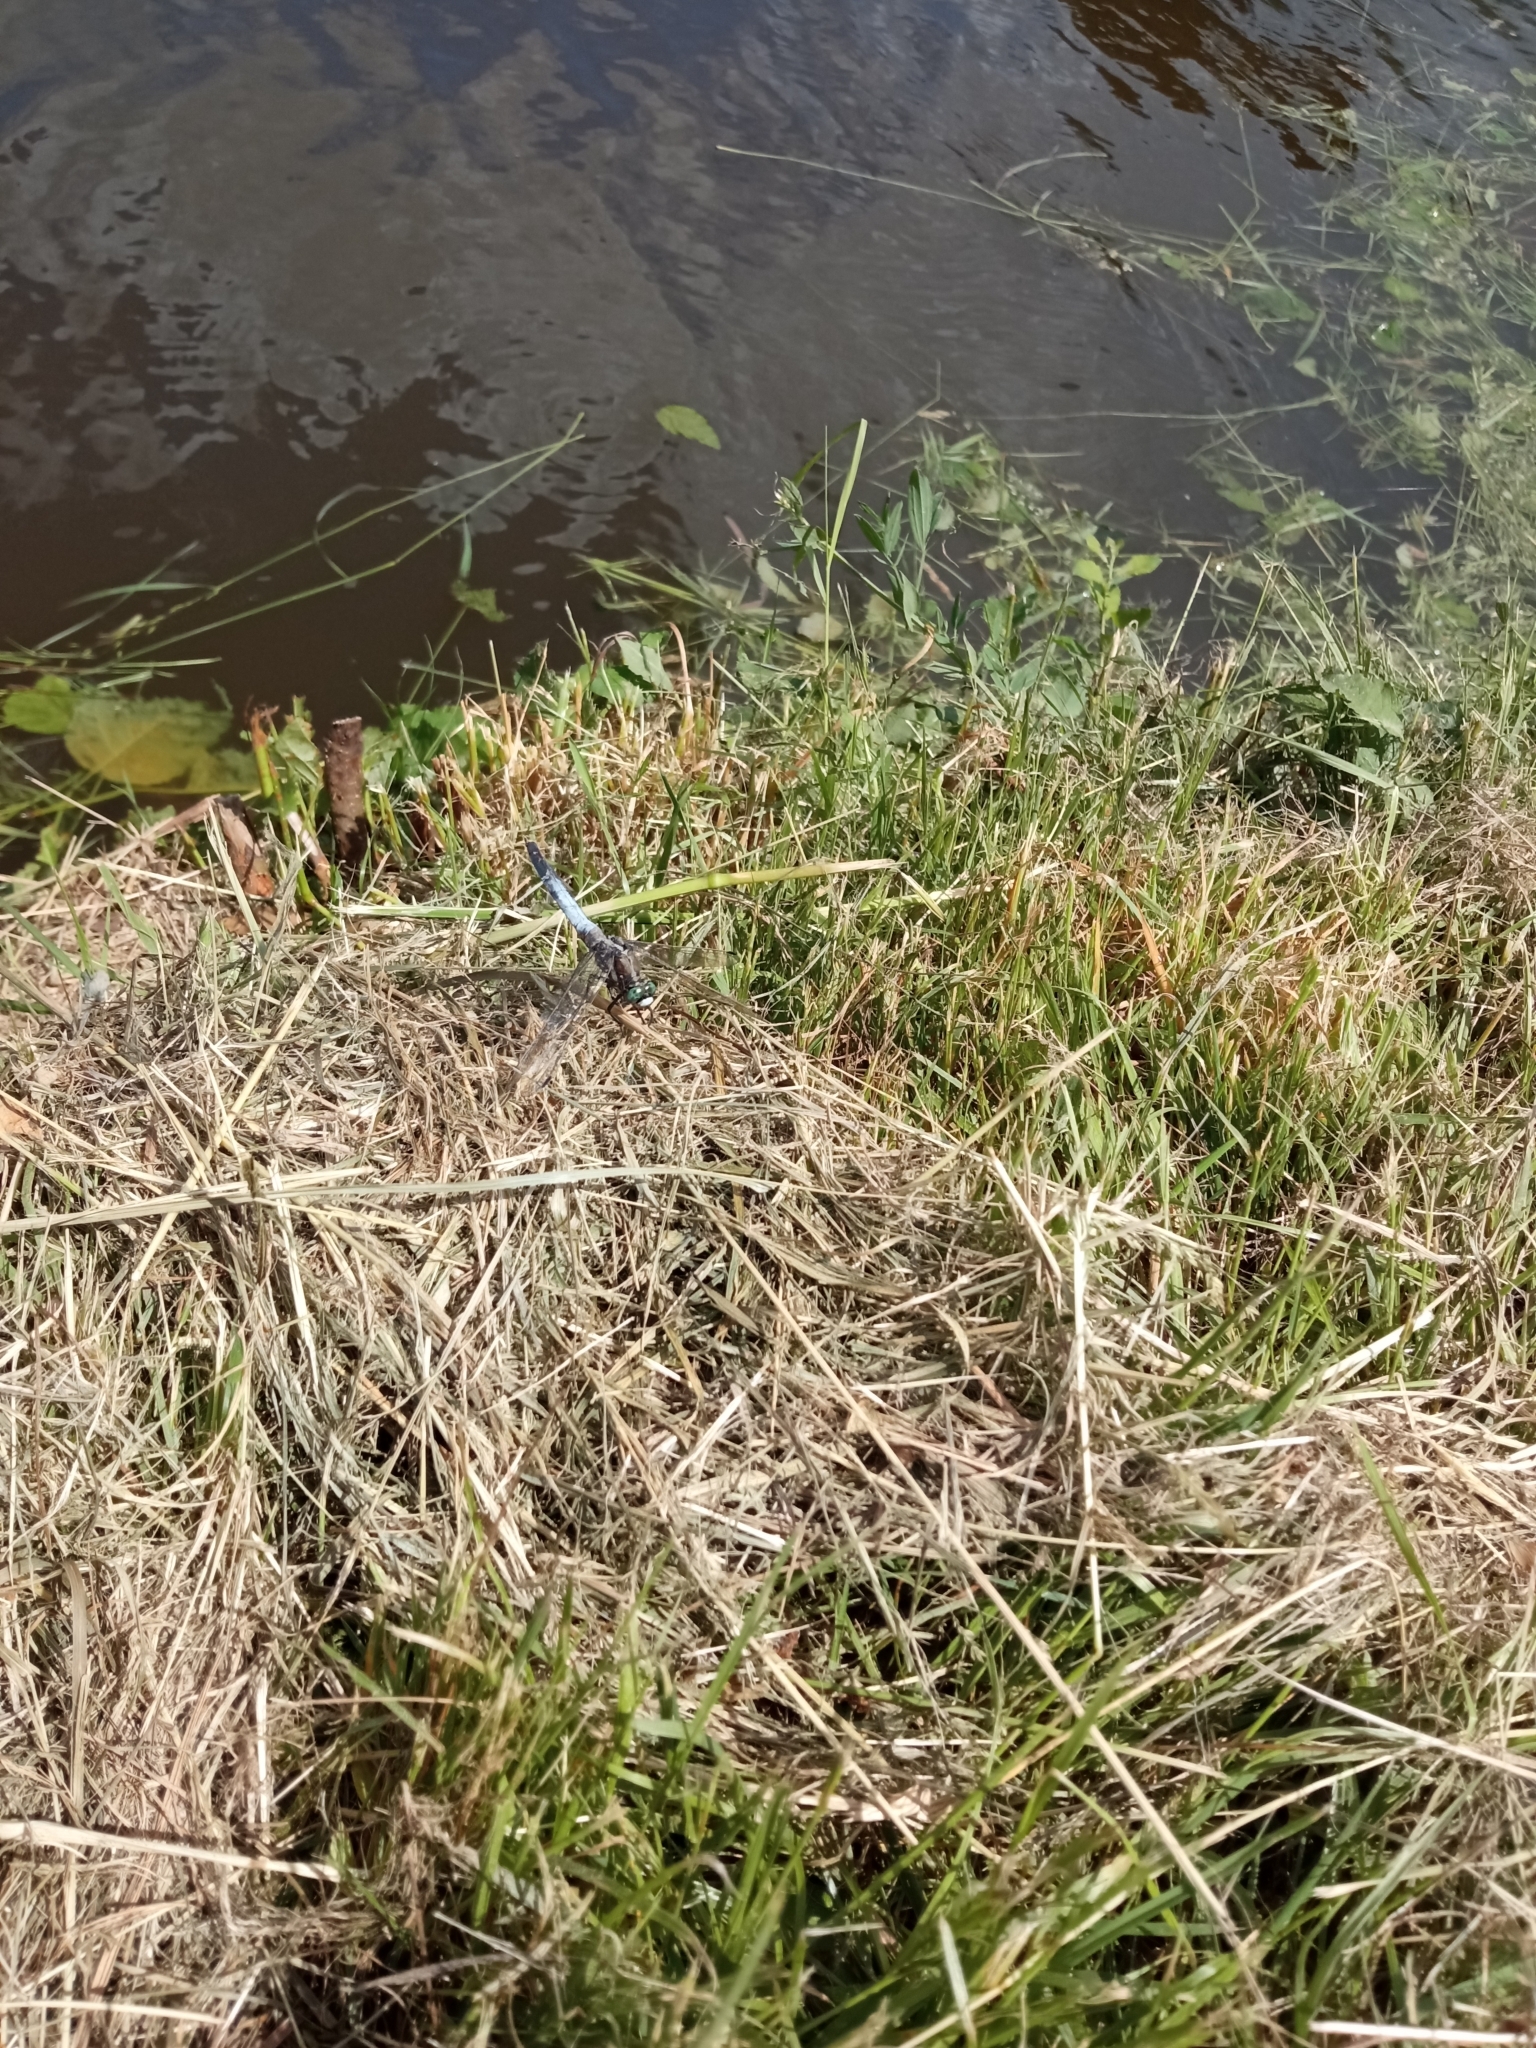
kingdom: Animalia
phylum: Arthropoda
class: Insecta
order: Odonata
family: Libellulidae
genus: Orthetrum
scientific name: Orthetrum albistylum
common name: White-tailed skimmer
